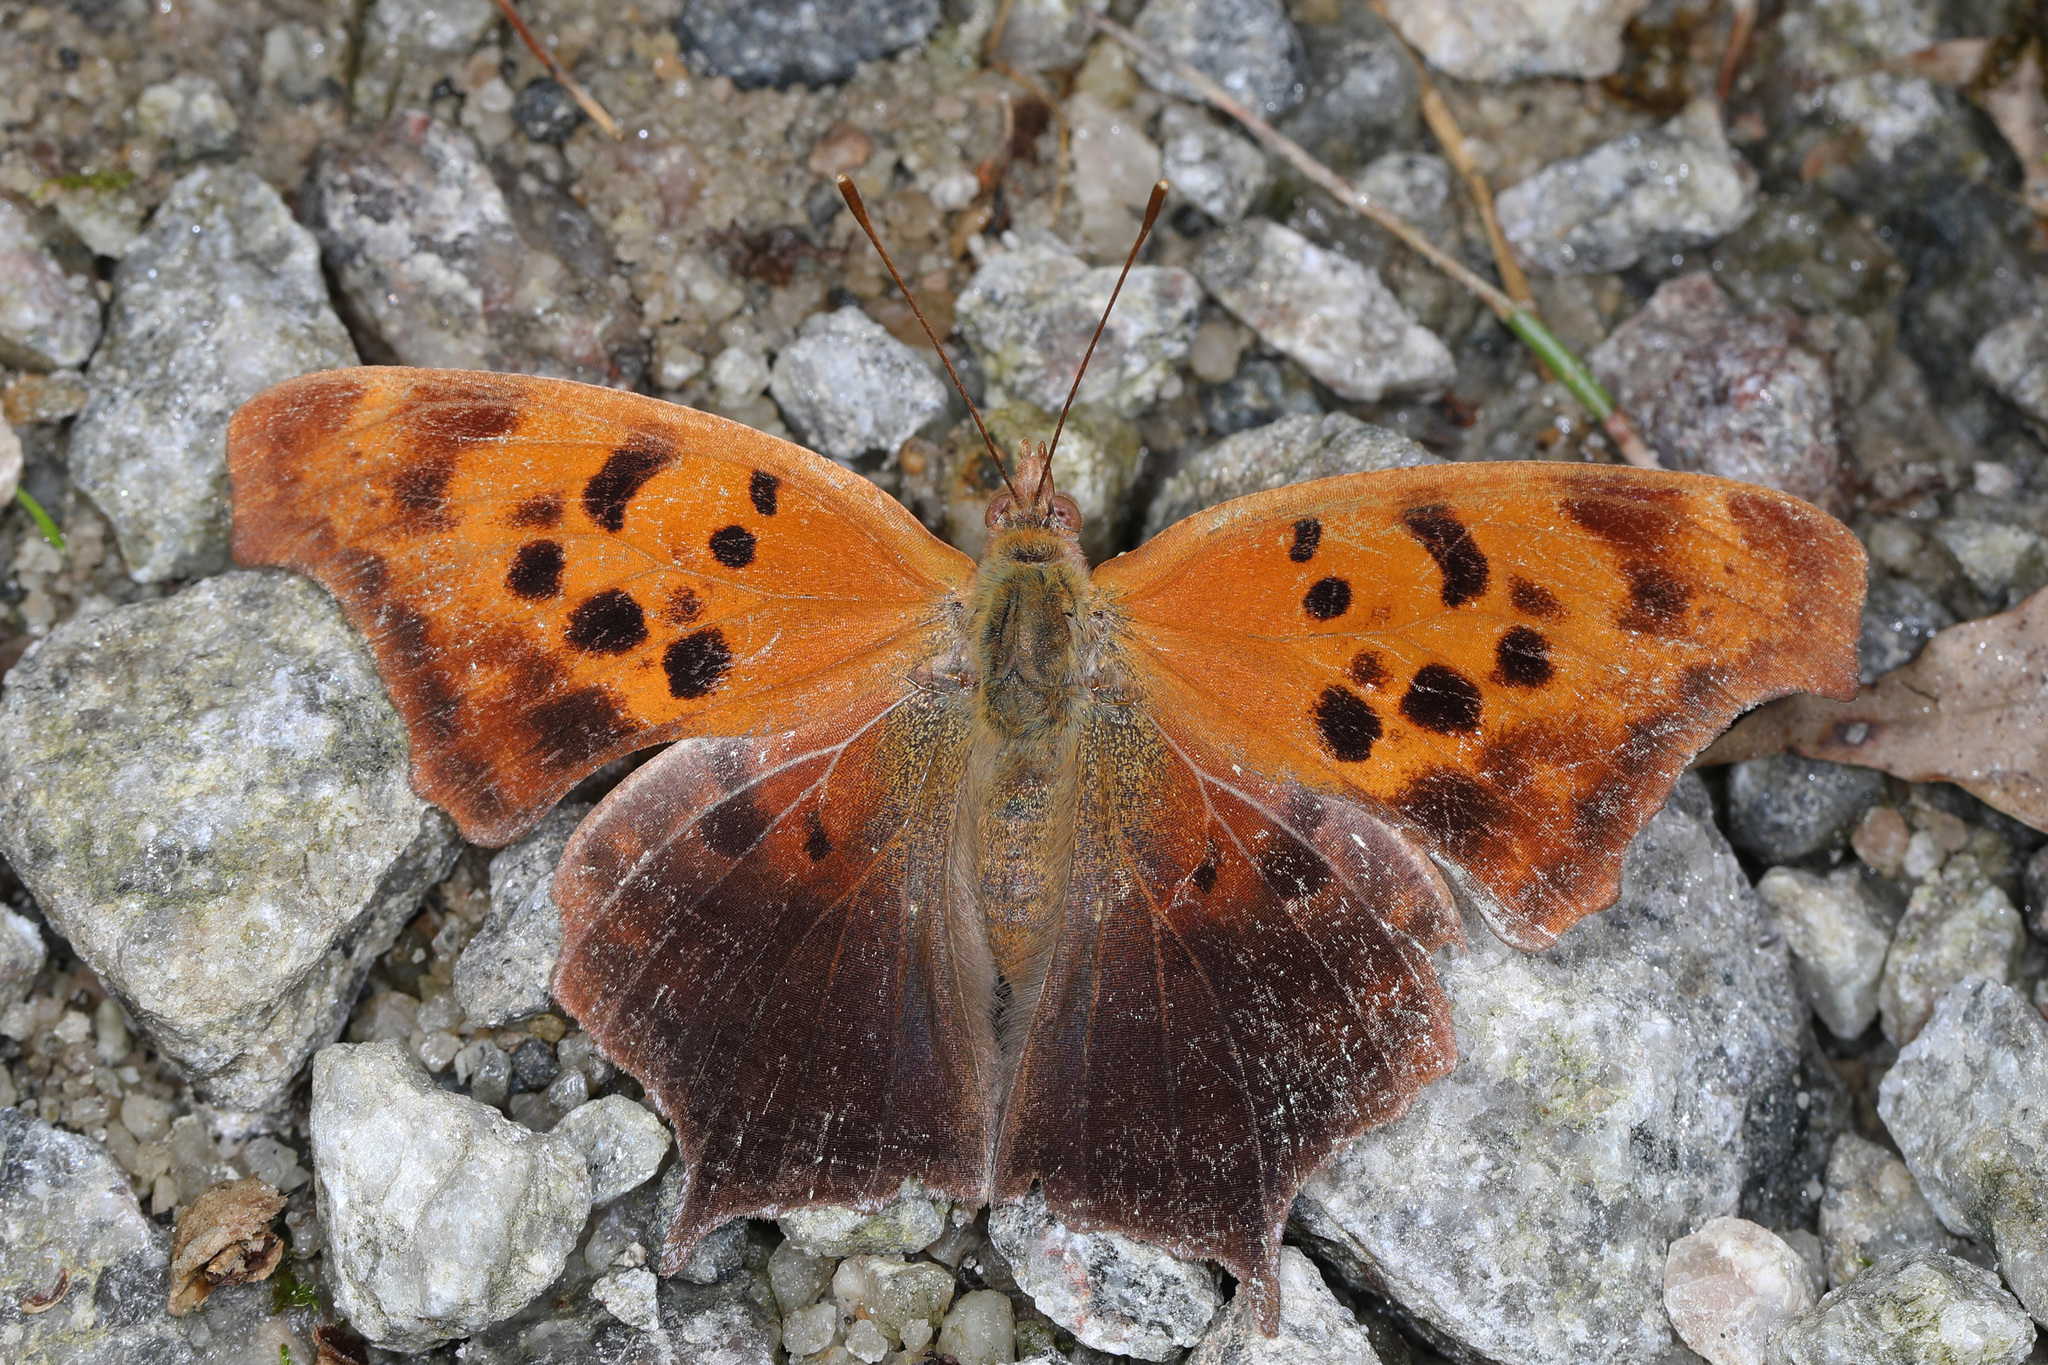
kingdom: Animalia
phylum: Arthropoda
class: Insecta
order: Lepidoptera
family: Nymphalidae
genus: Polygonia
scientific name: Polygonia interrogationis
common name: Question mark
